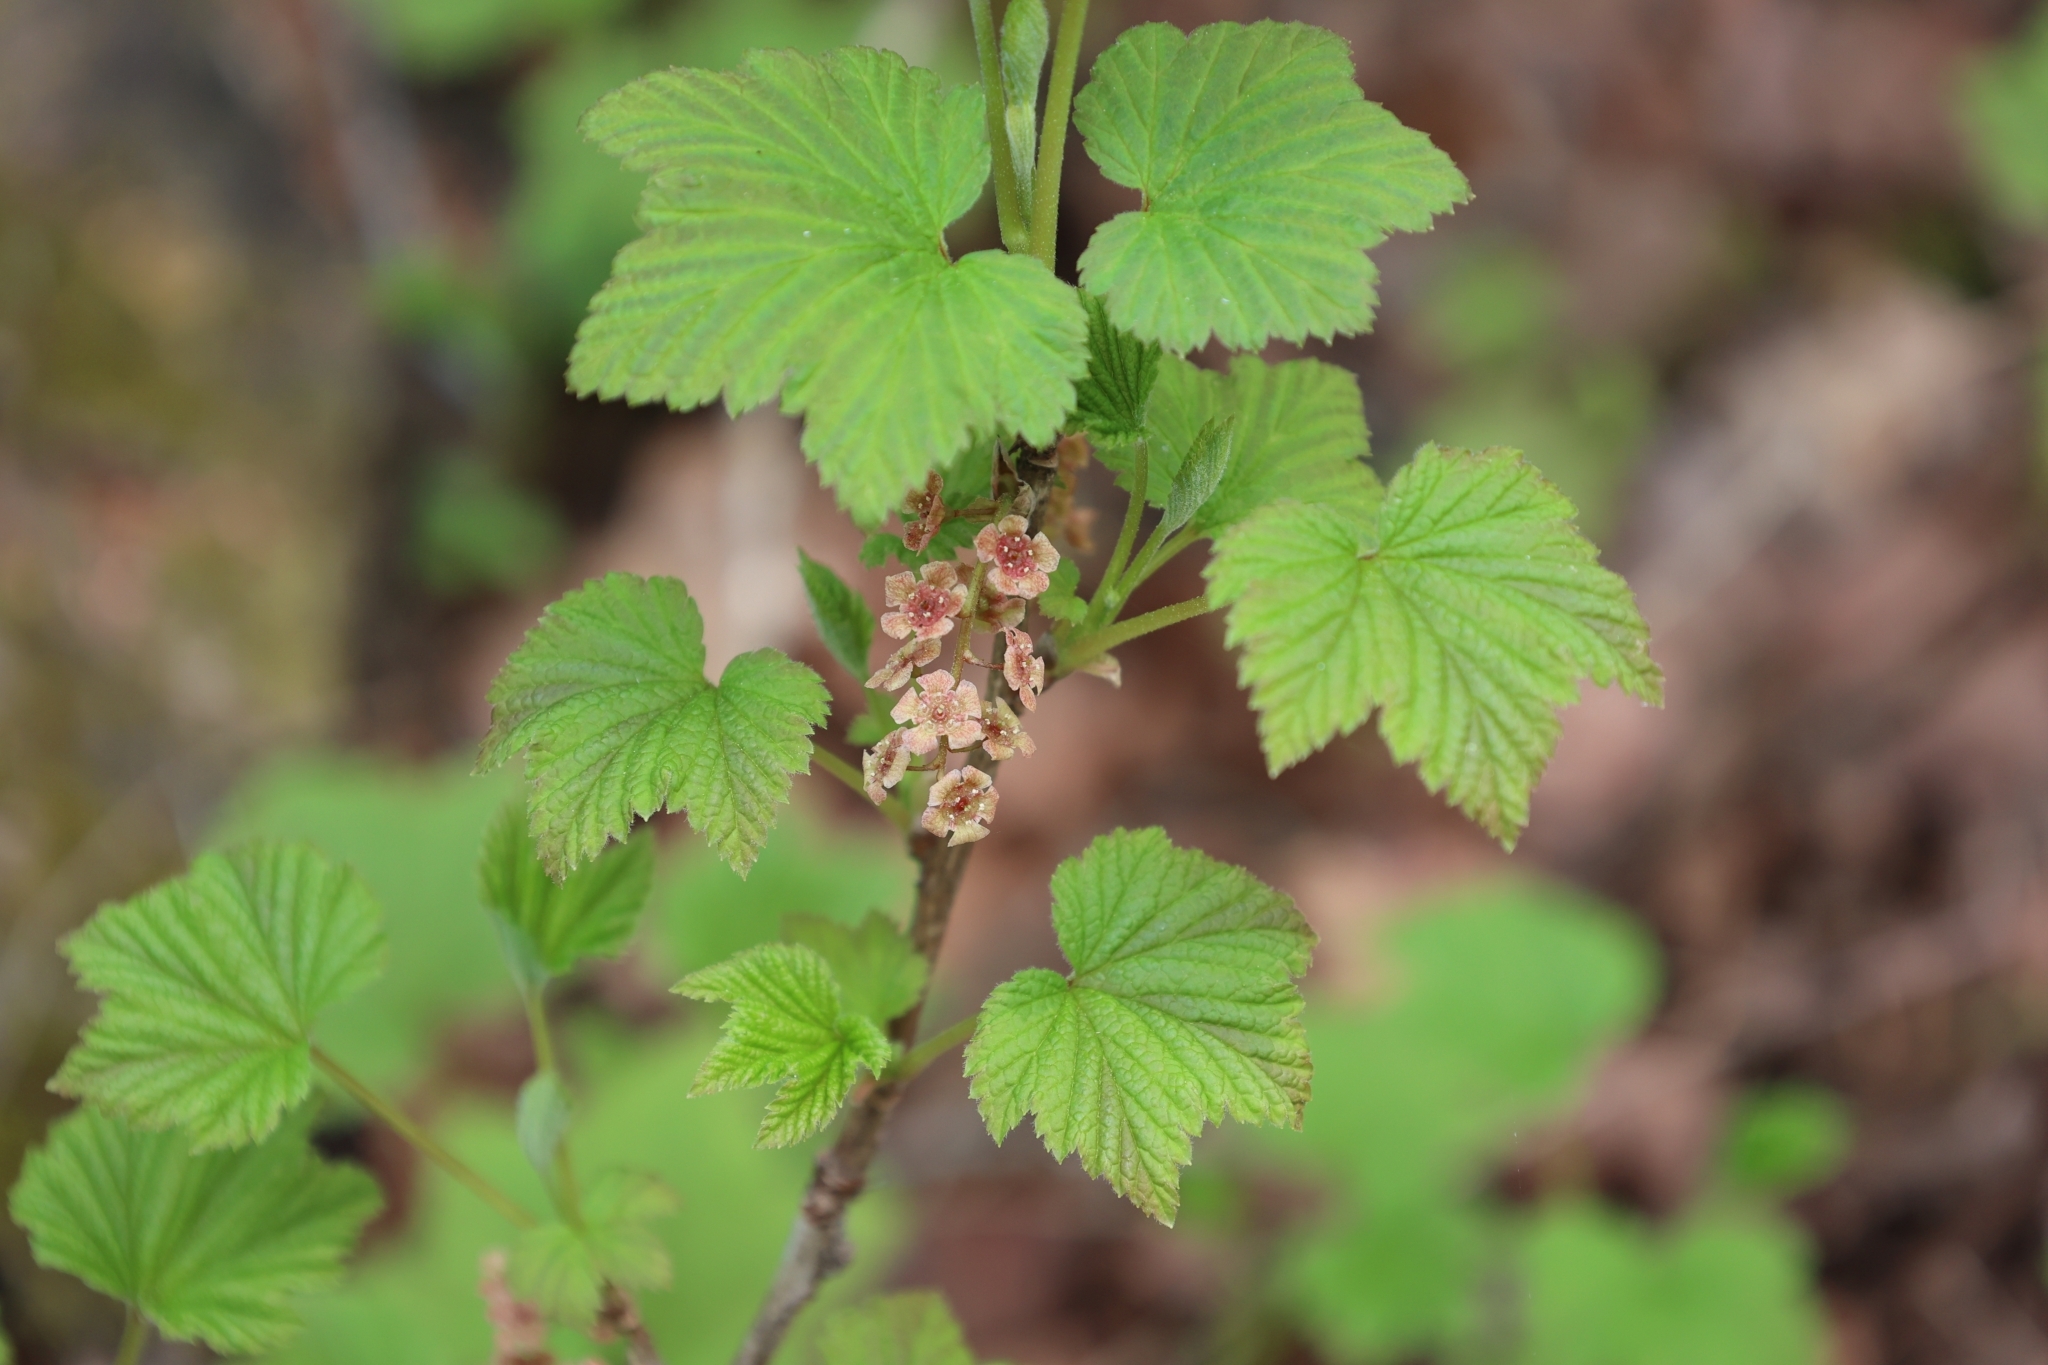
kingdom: Plantae
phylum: Tracheophyta
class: Magnoliopsida
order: Saxifragales
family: Grossulariaceae
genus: Ribes
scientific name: Ribes triste
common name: Swamp red currant
